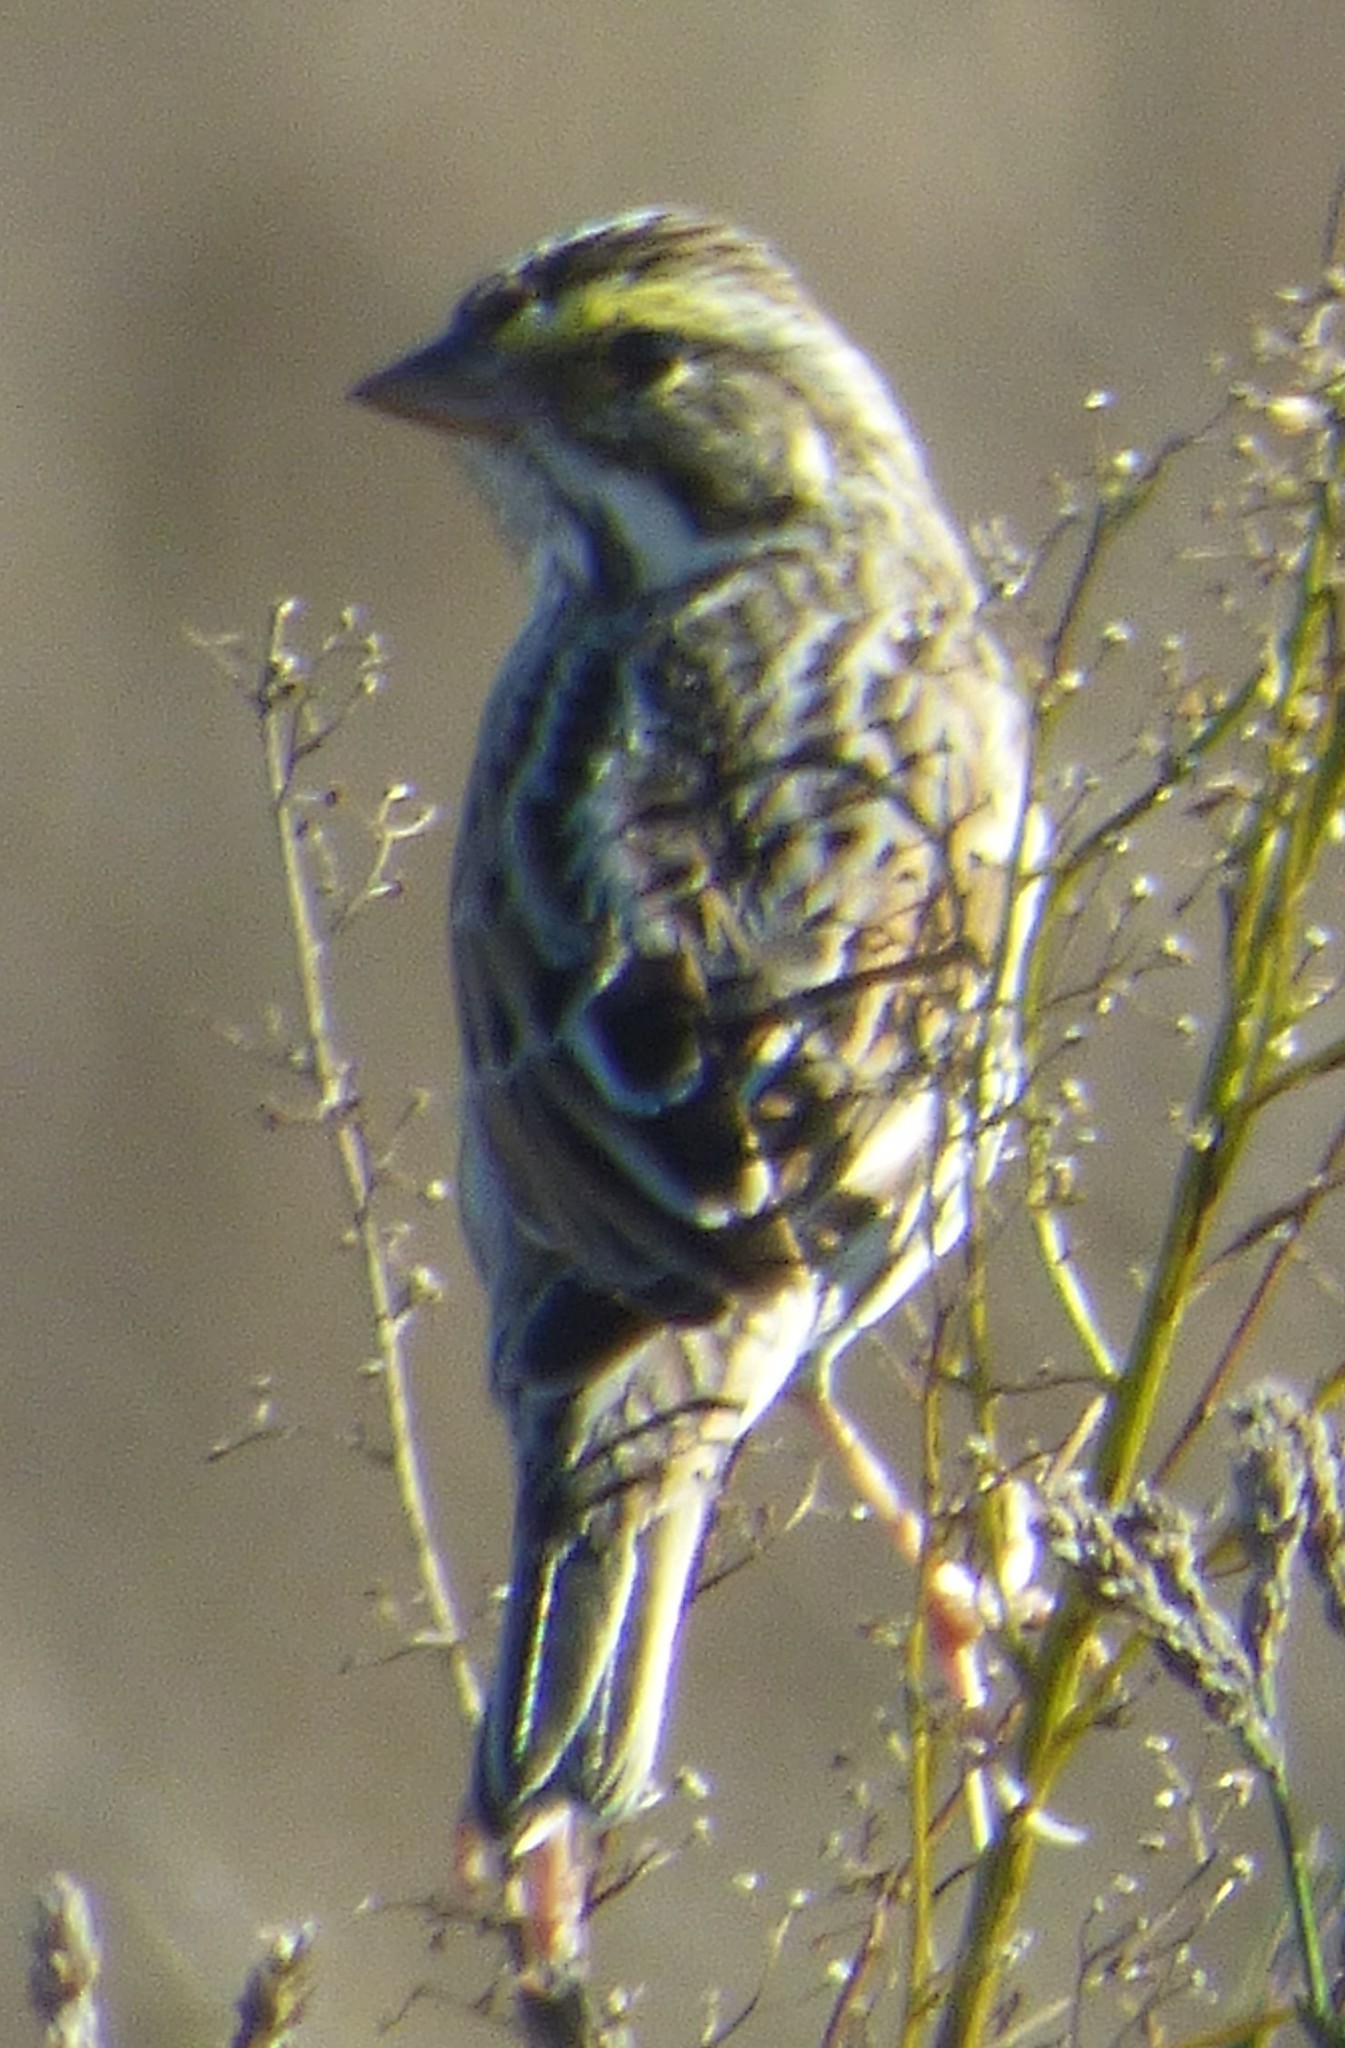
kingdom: Animalia
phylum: Chordata
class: Aves
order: Passeriformes
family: Passerellidae
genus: Passerculus
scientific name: Passerculus sandwichensis
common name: Savannah sparrow
